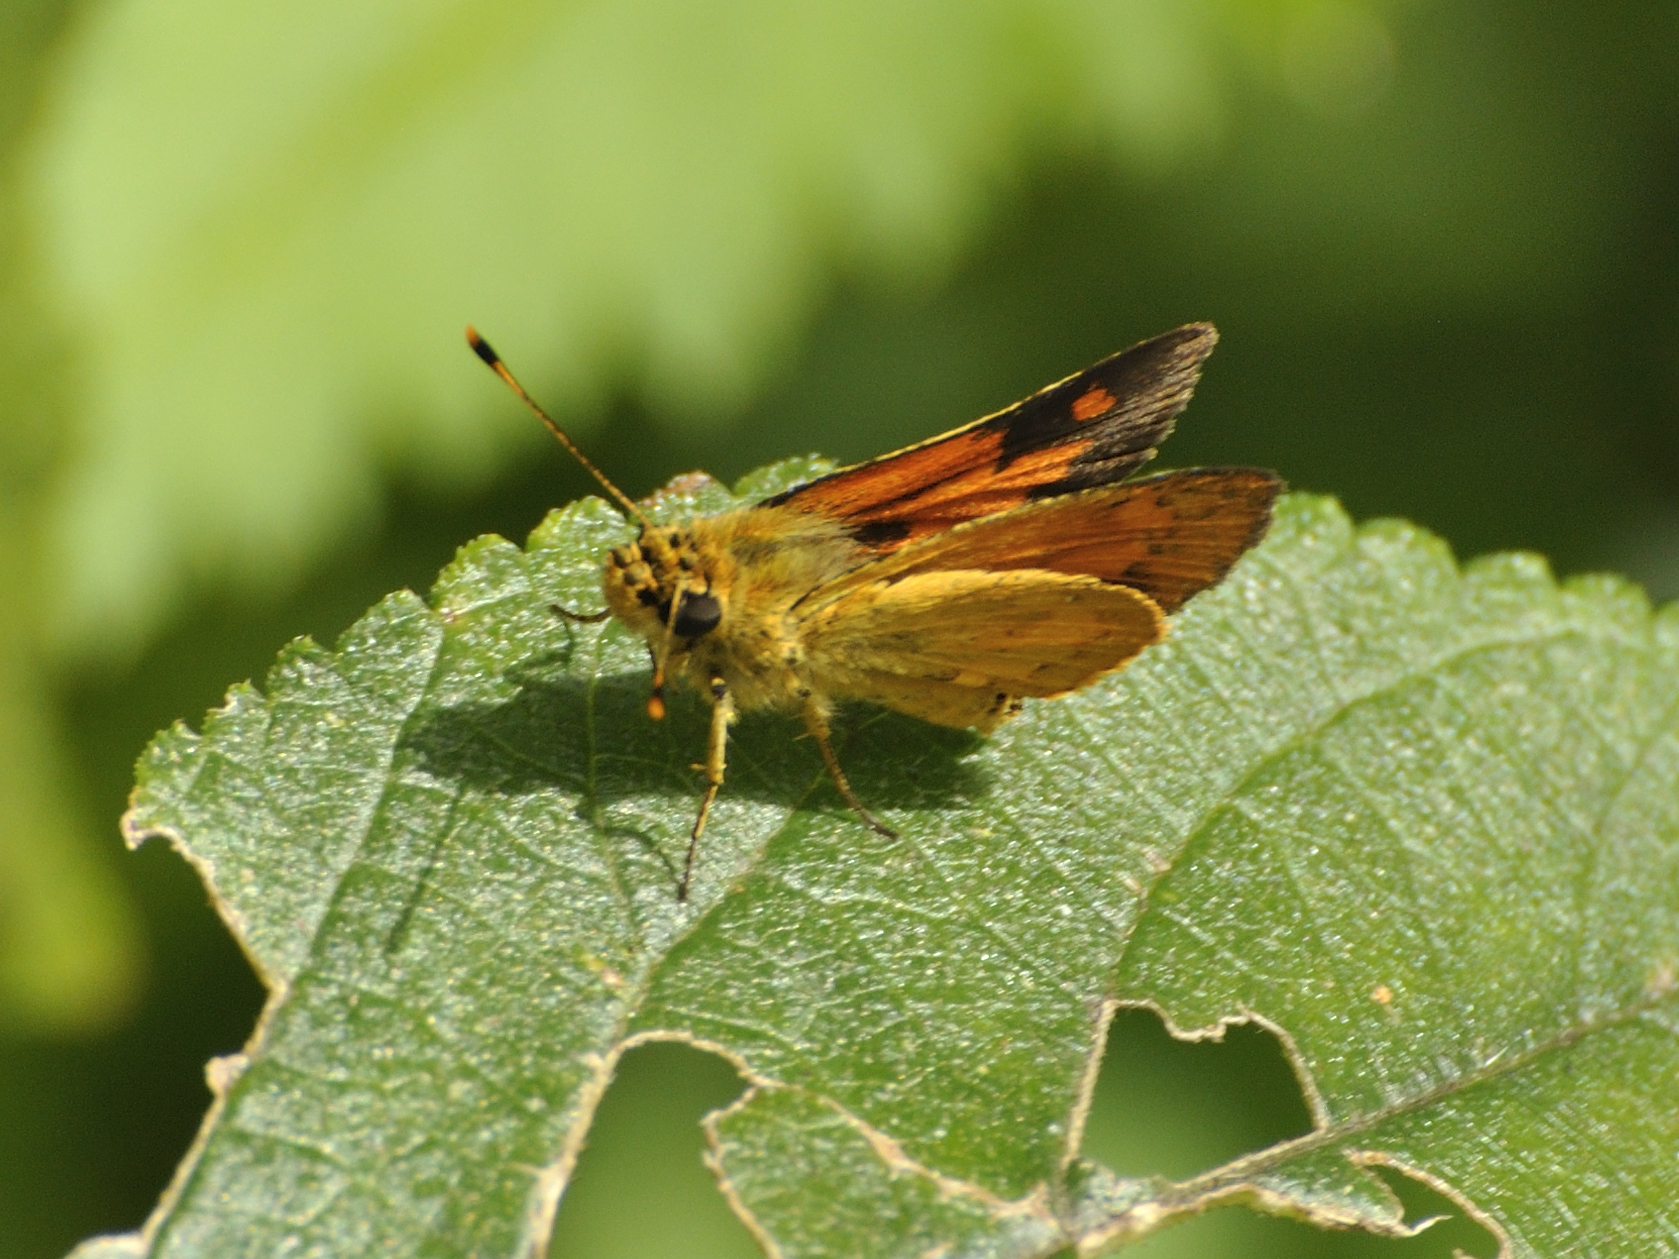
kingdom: Animalia
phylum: Arthropoda
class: Insecta
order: Lepidoptera
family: Hesperiidae
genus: Fulda
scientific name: Fulda coroller
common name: Common fulda
